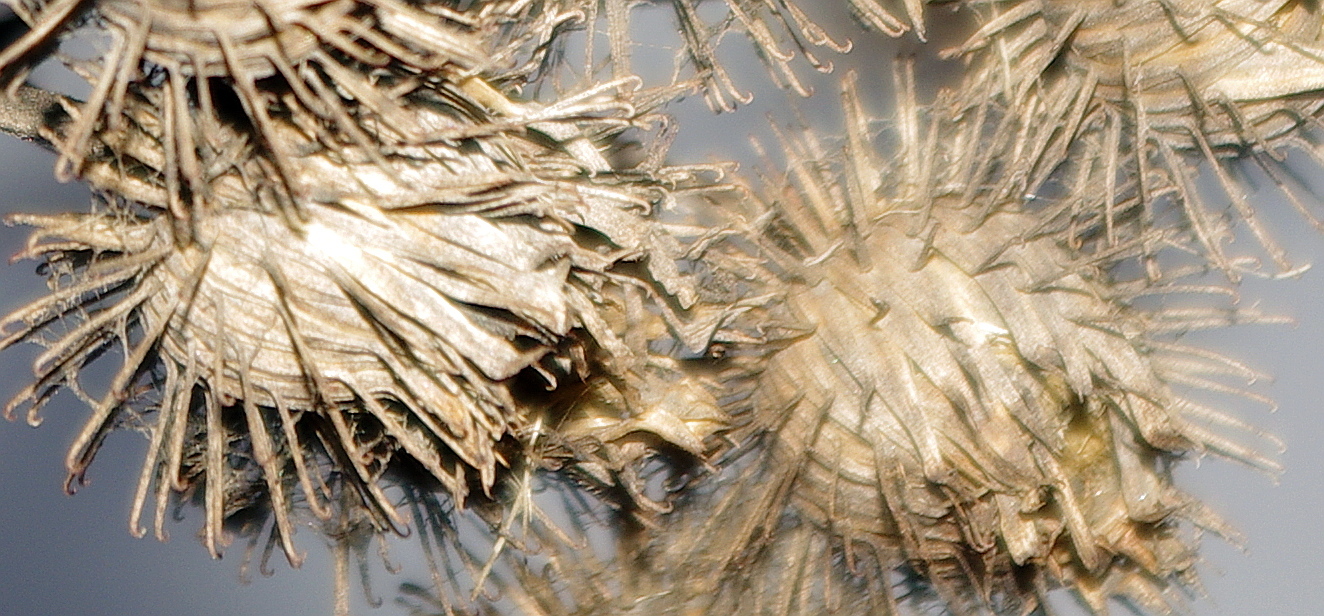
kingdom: Plantae
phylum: Tracheophyta
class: Magnoliopsida
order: Asterales
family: Asteraceae
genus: Arctium
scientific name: Arctium tomentosum
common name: Woolly burdock
